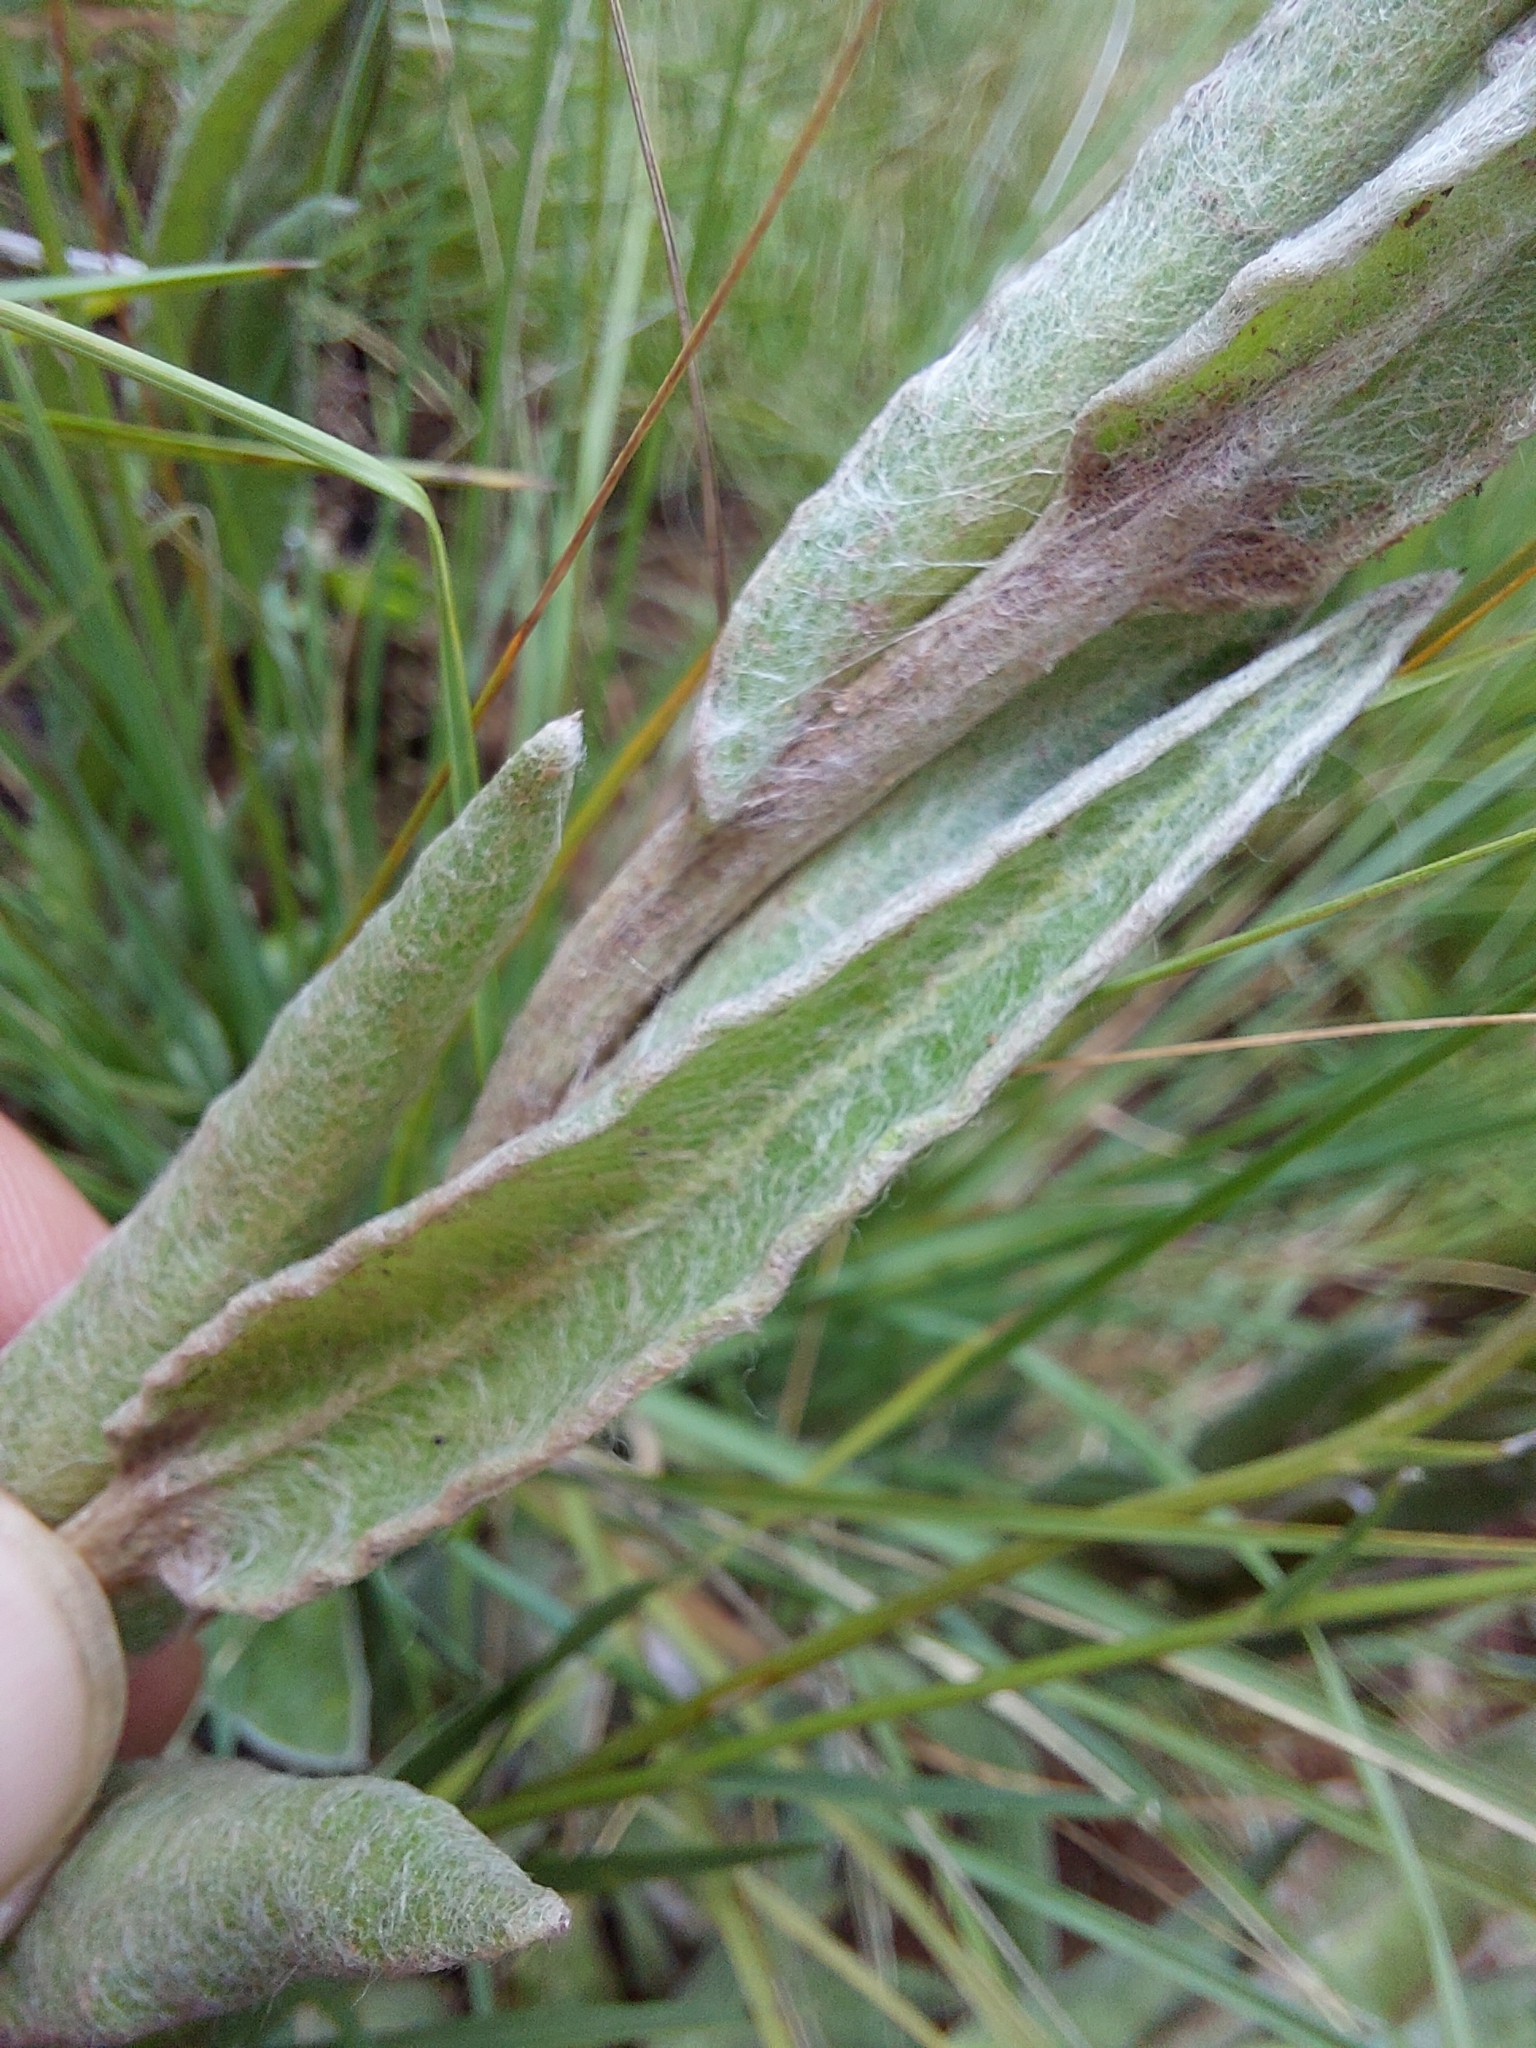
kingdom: Plantae
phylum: Tracheophyta
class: Magnoliopsida
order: Asterales
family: Asteraceae
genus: Helichrysum
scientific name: Helichrysum appendiculatum
